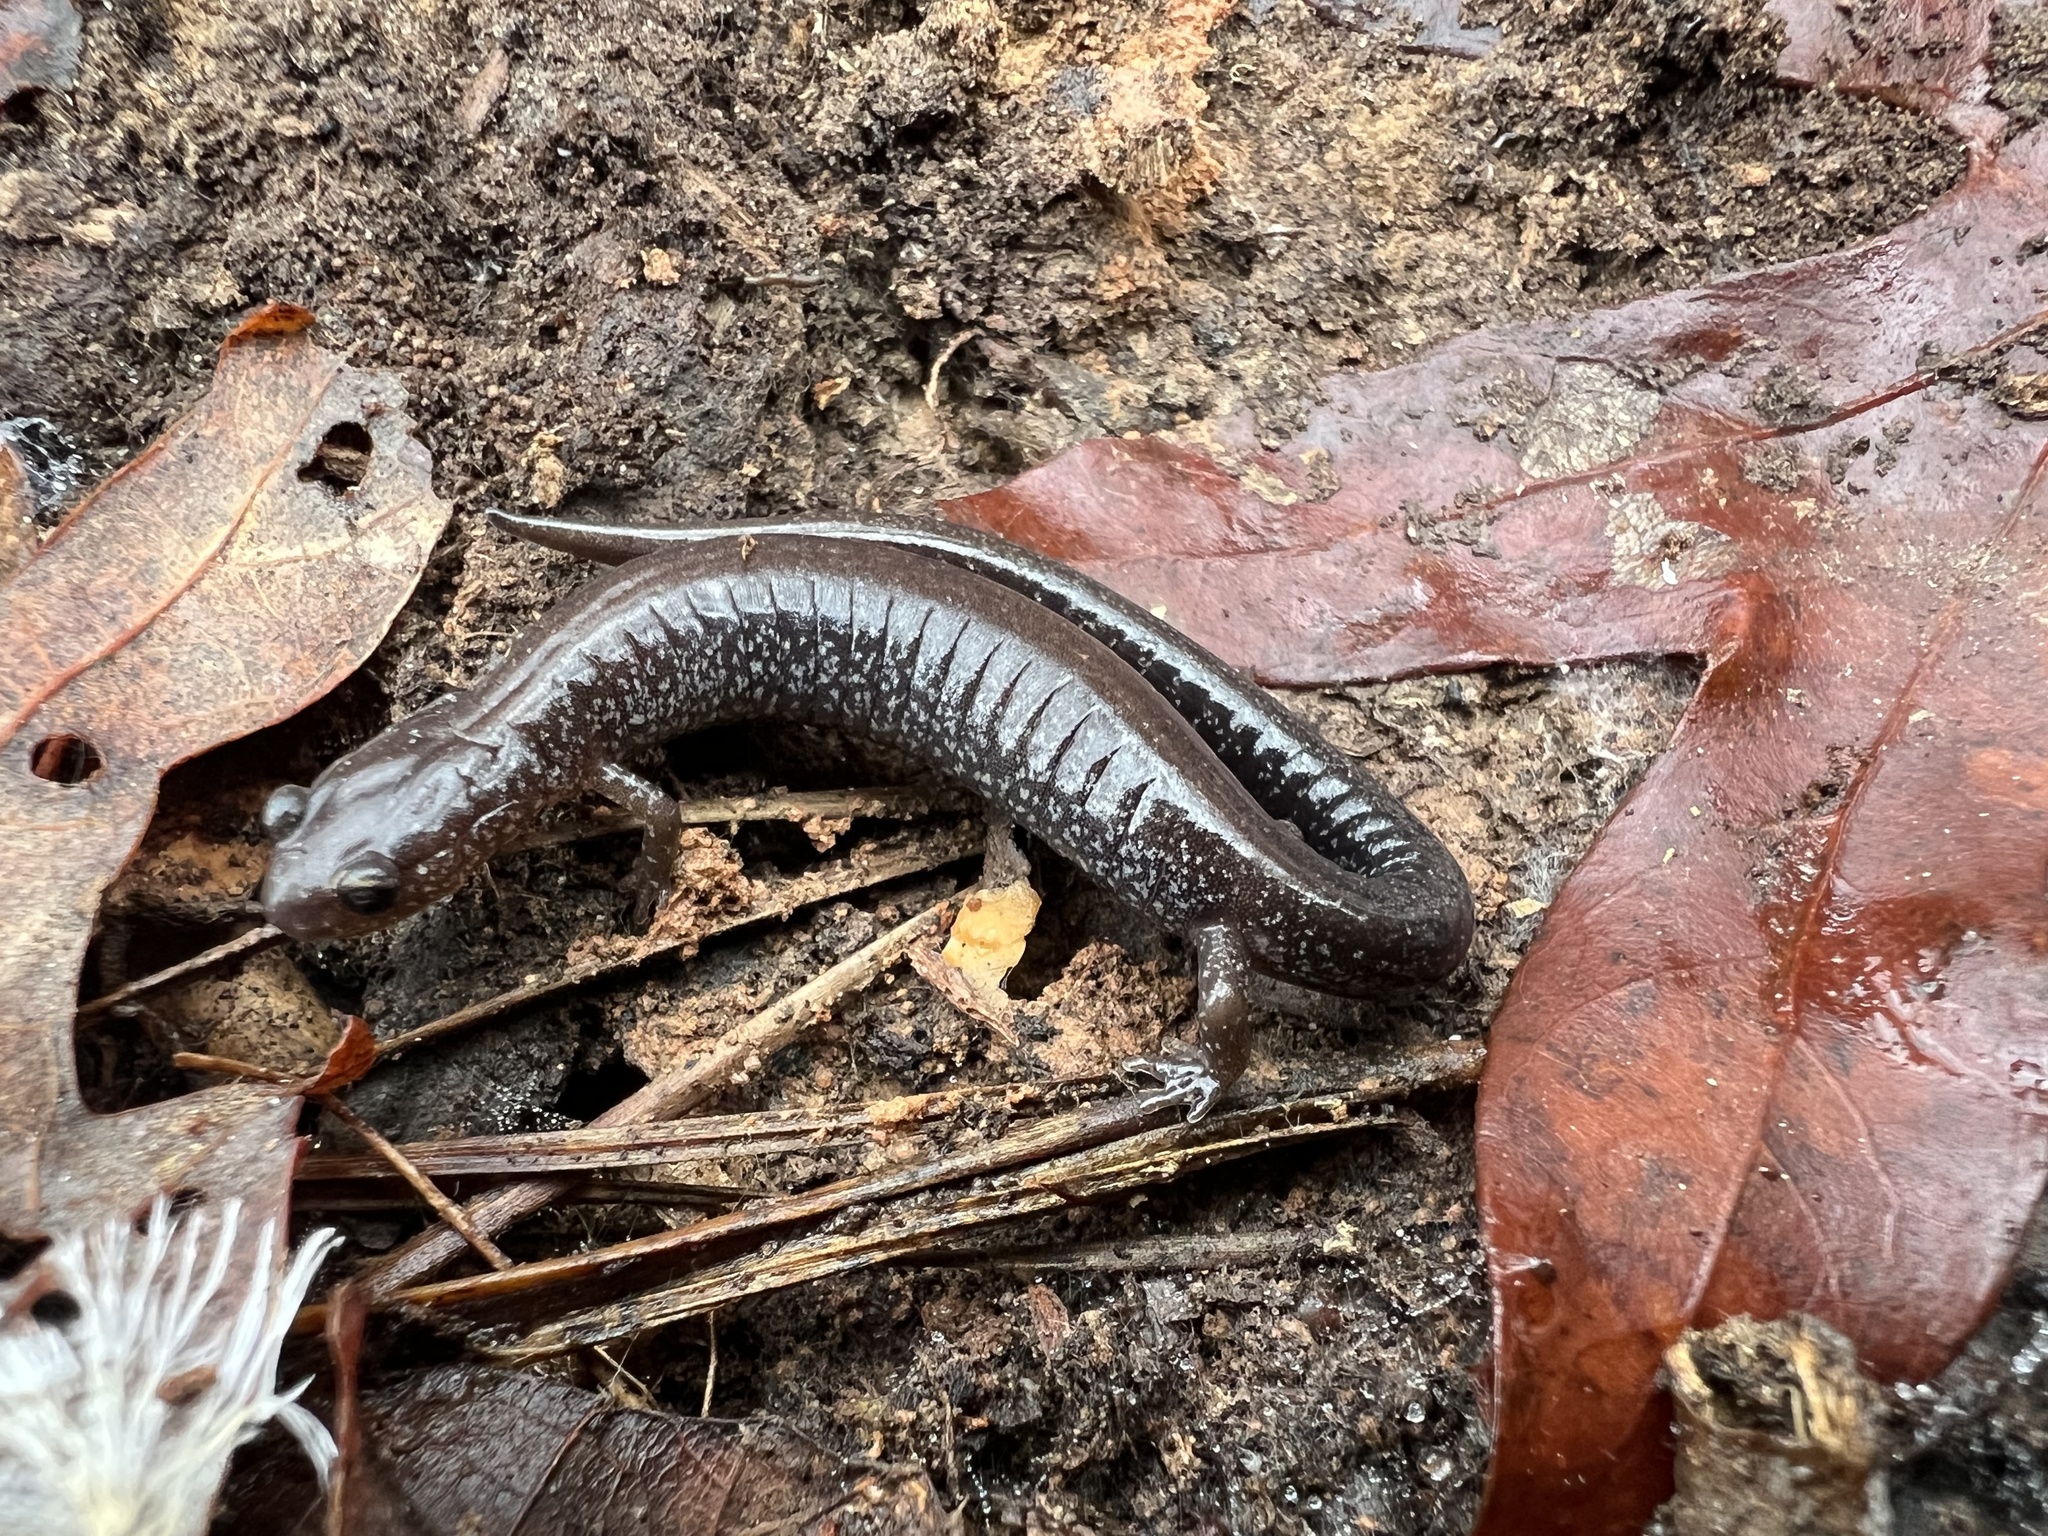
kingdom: Animalia
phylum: Chordata
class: Amphibia
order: Caudata
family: Plethodontidae
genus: Plethodon
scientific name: Plethodon cinereus
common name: Redback salamander
